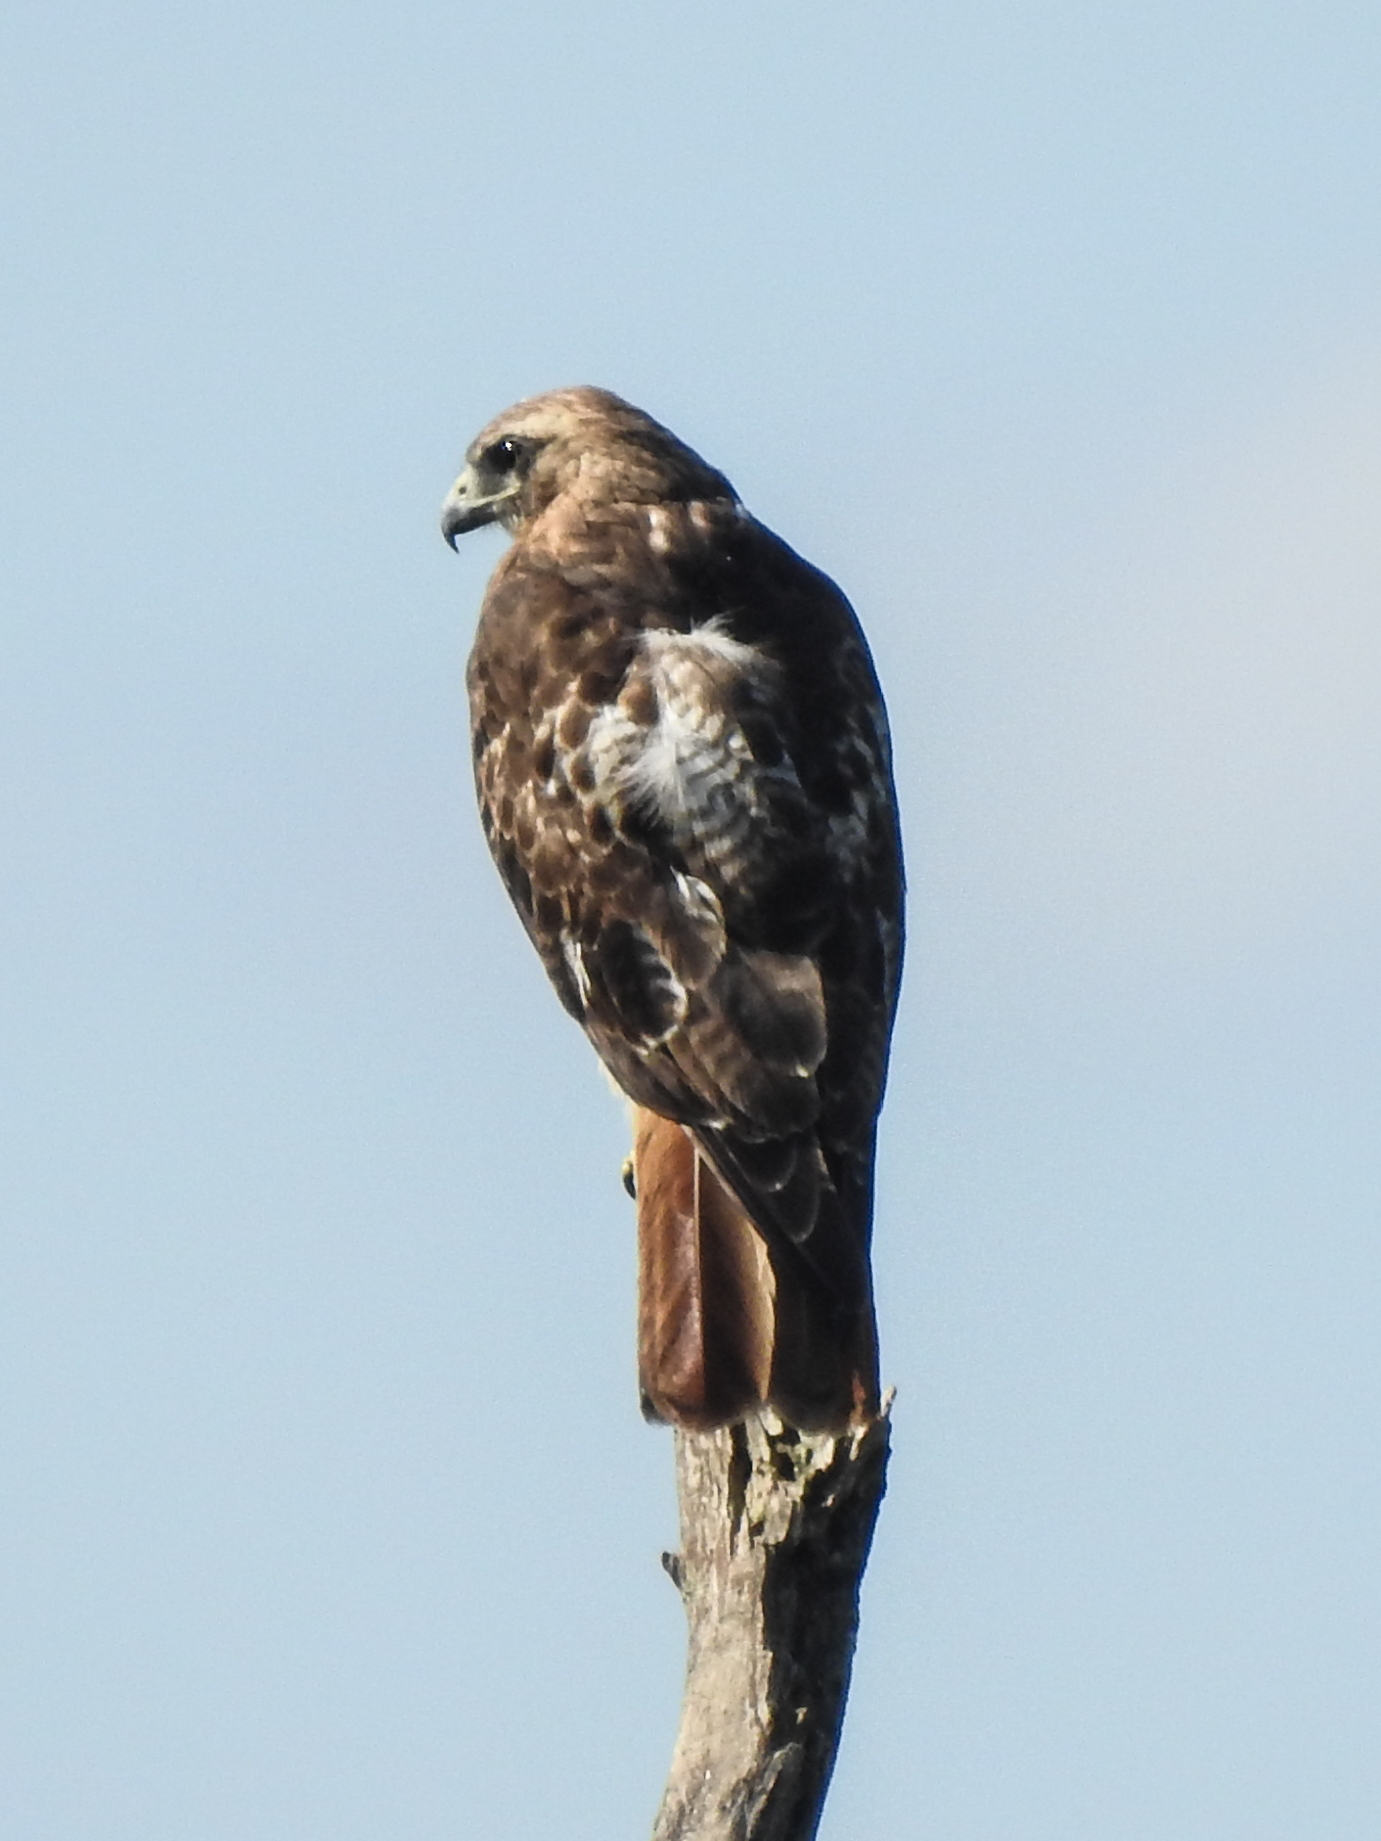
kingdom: Animalia
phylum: Chordata
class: Aves
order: Accipitriformes
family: Accipitridae
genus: Buteo
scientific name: Buteo jamaicensis
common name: Red-tailed hawk
